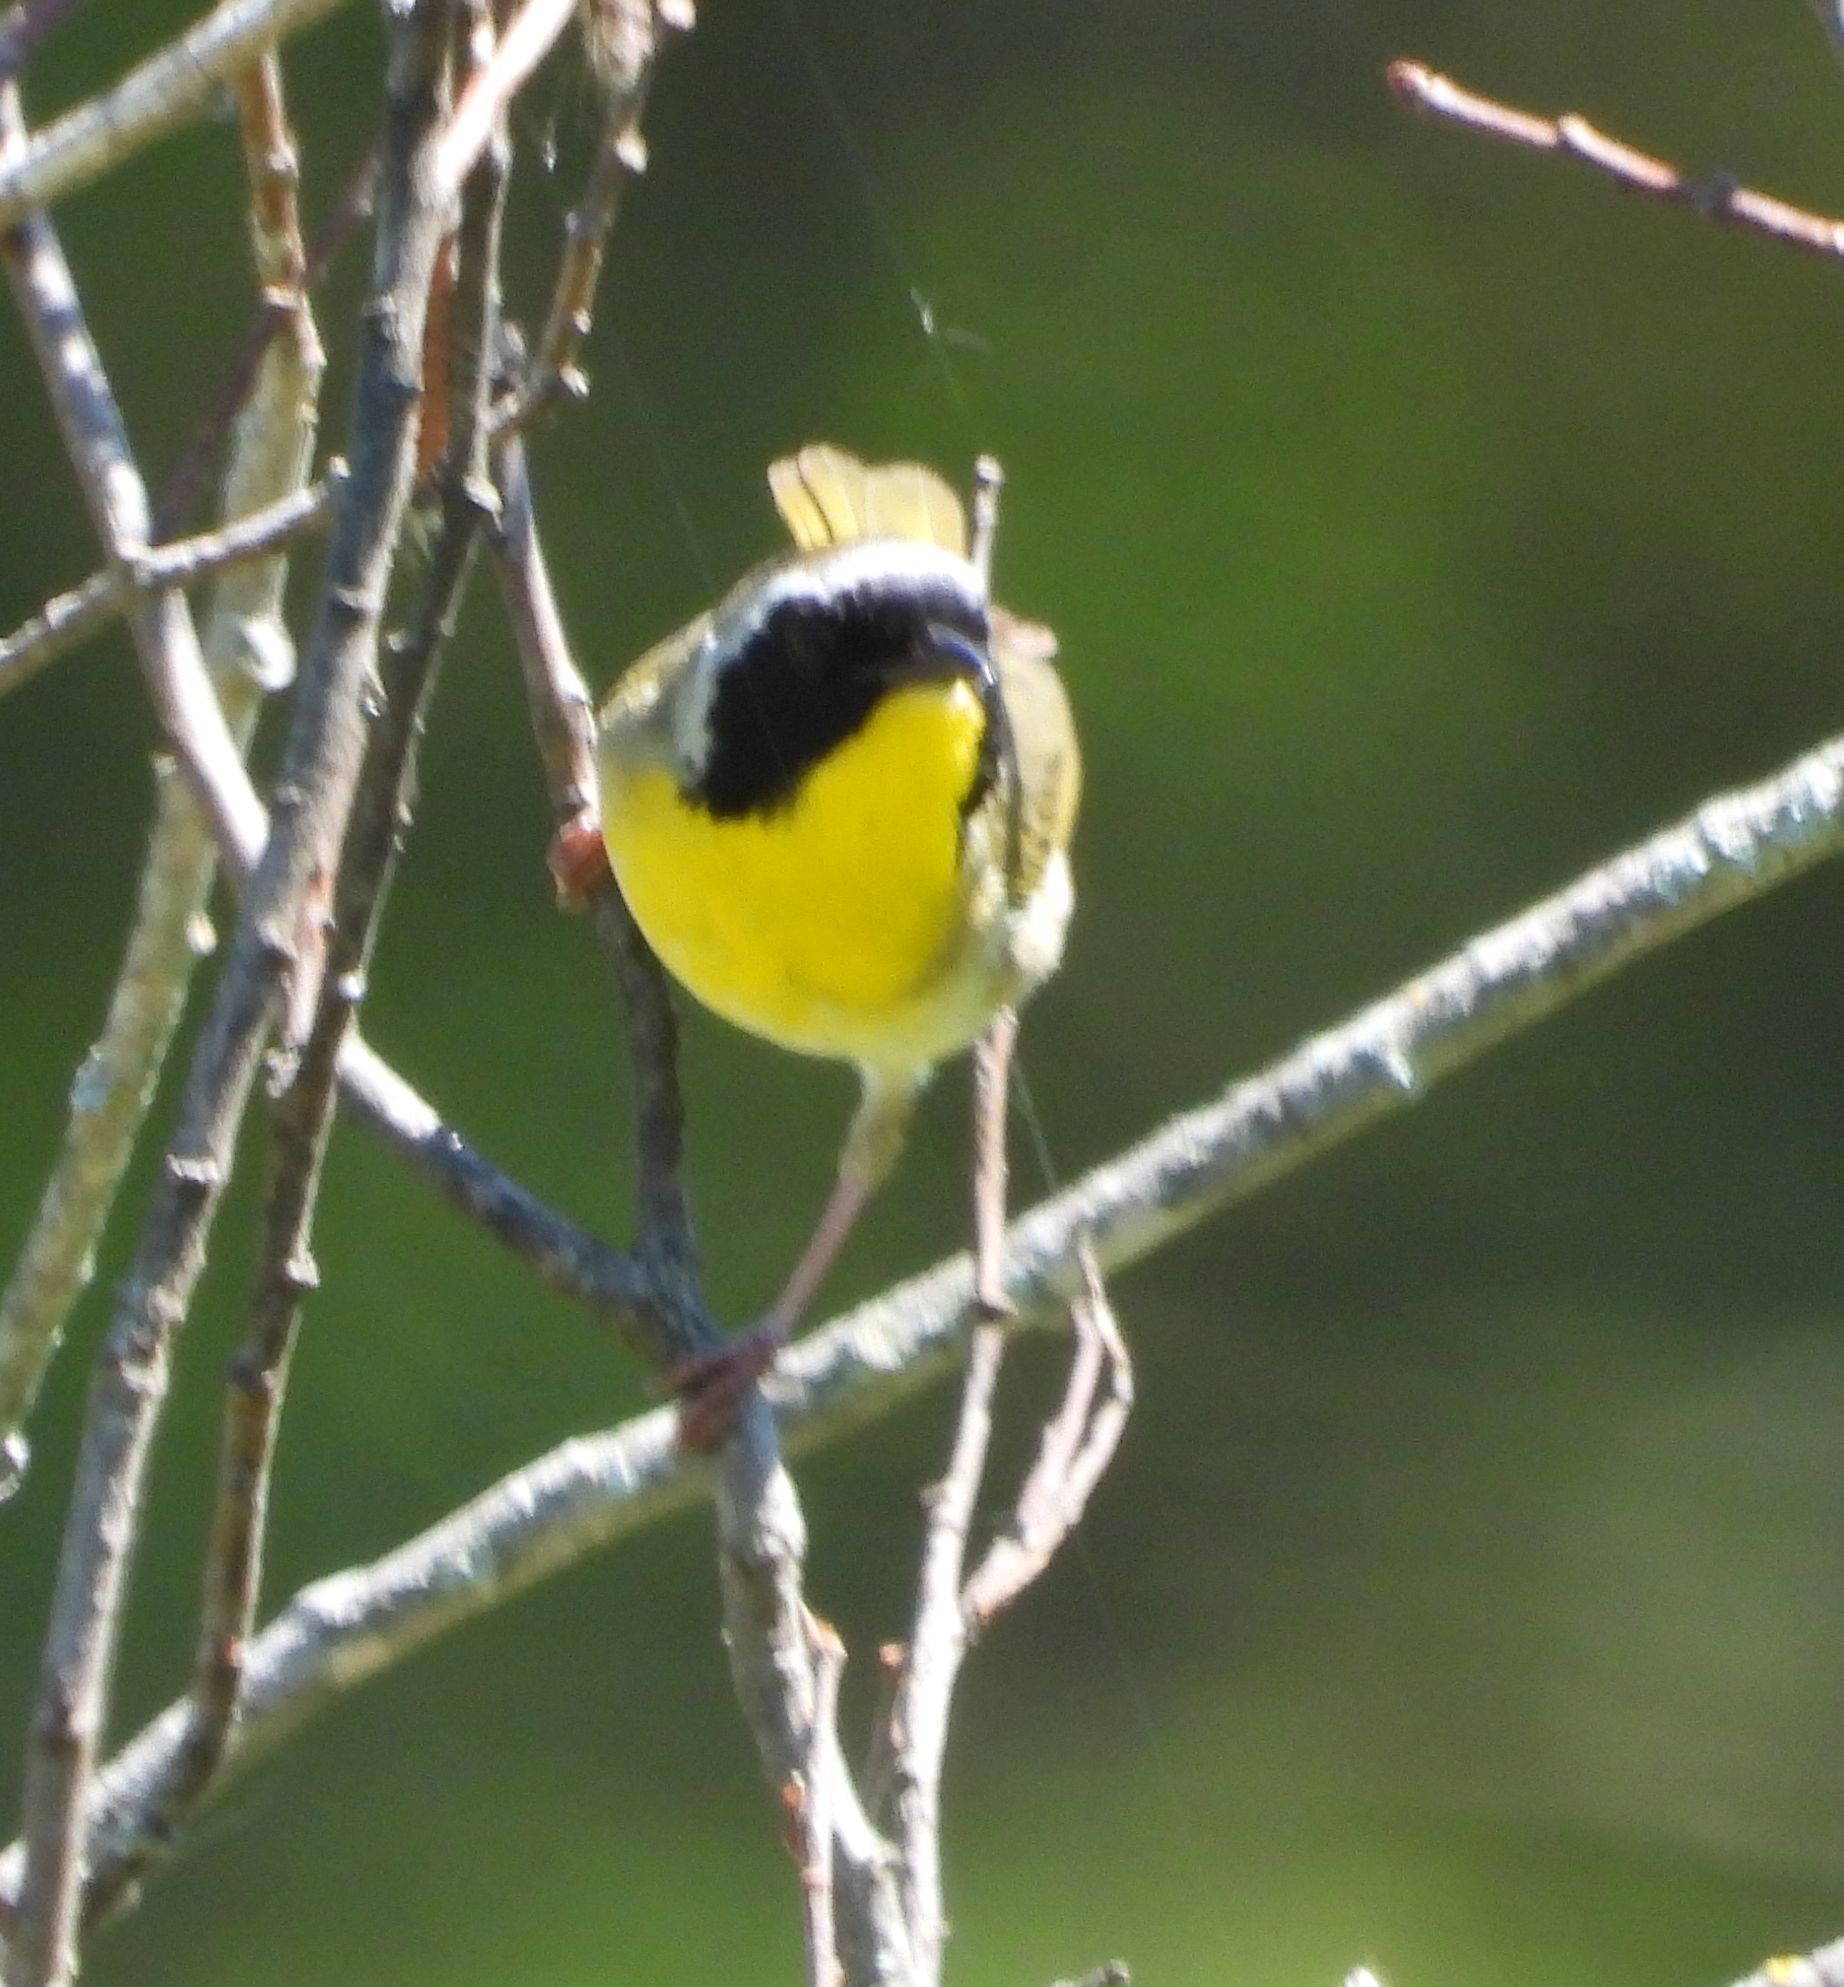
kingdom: Animalia
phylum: Chordata
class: Aves
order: Passeriformes
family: Parulidae
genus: Geothlypis
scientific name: Geothlypis trichas
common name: Common yellowthroat
